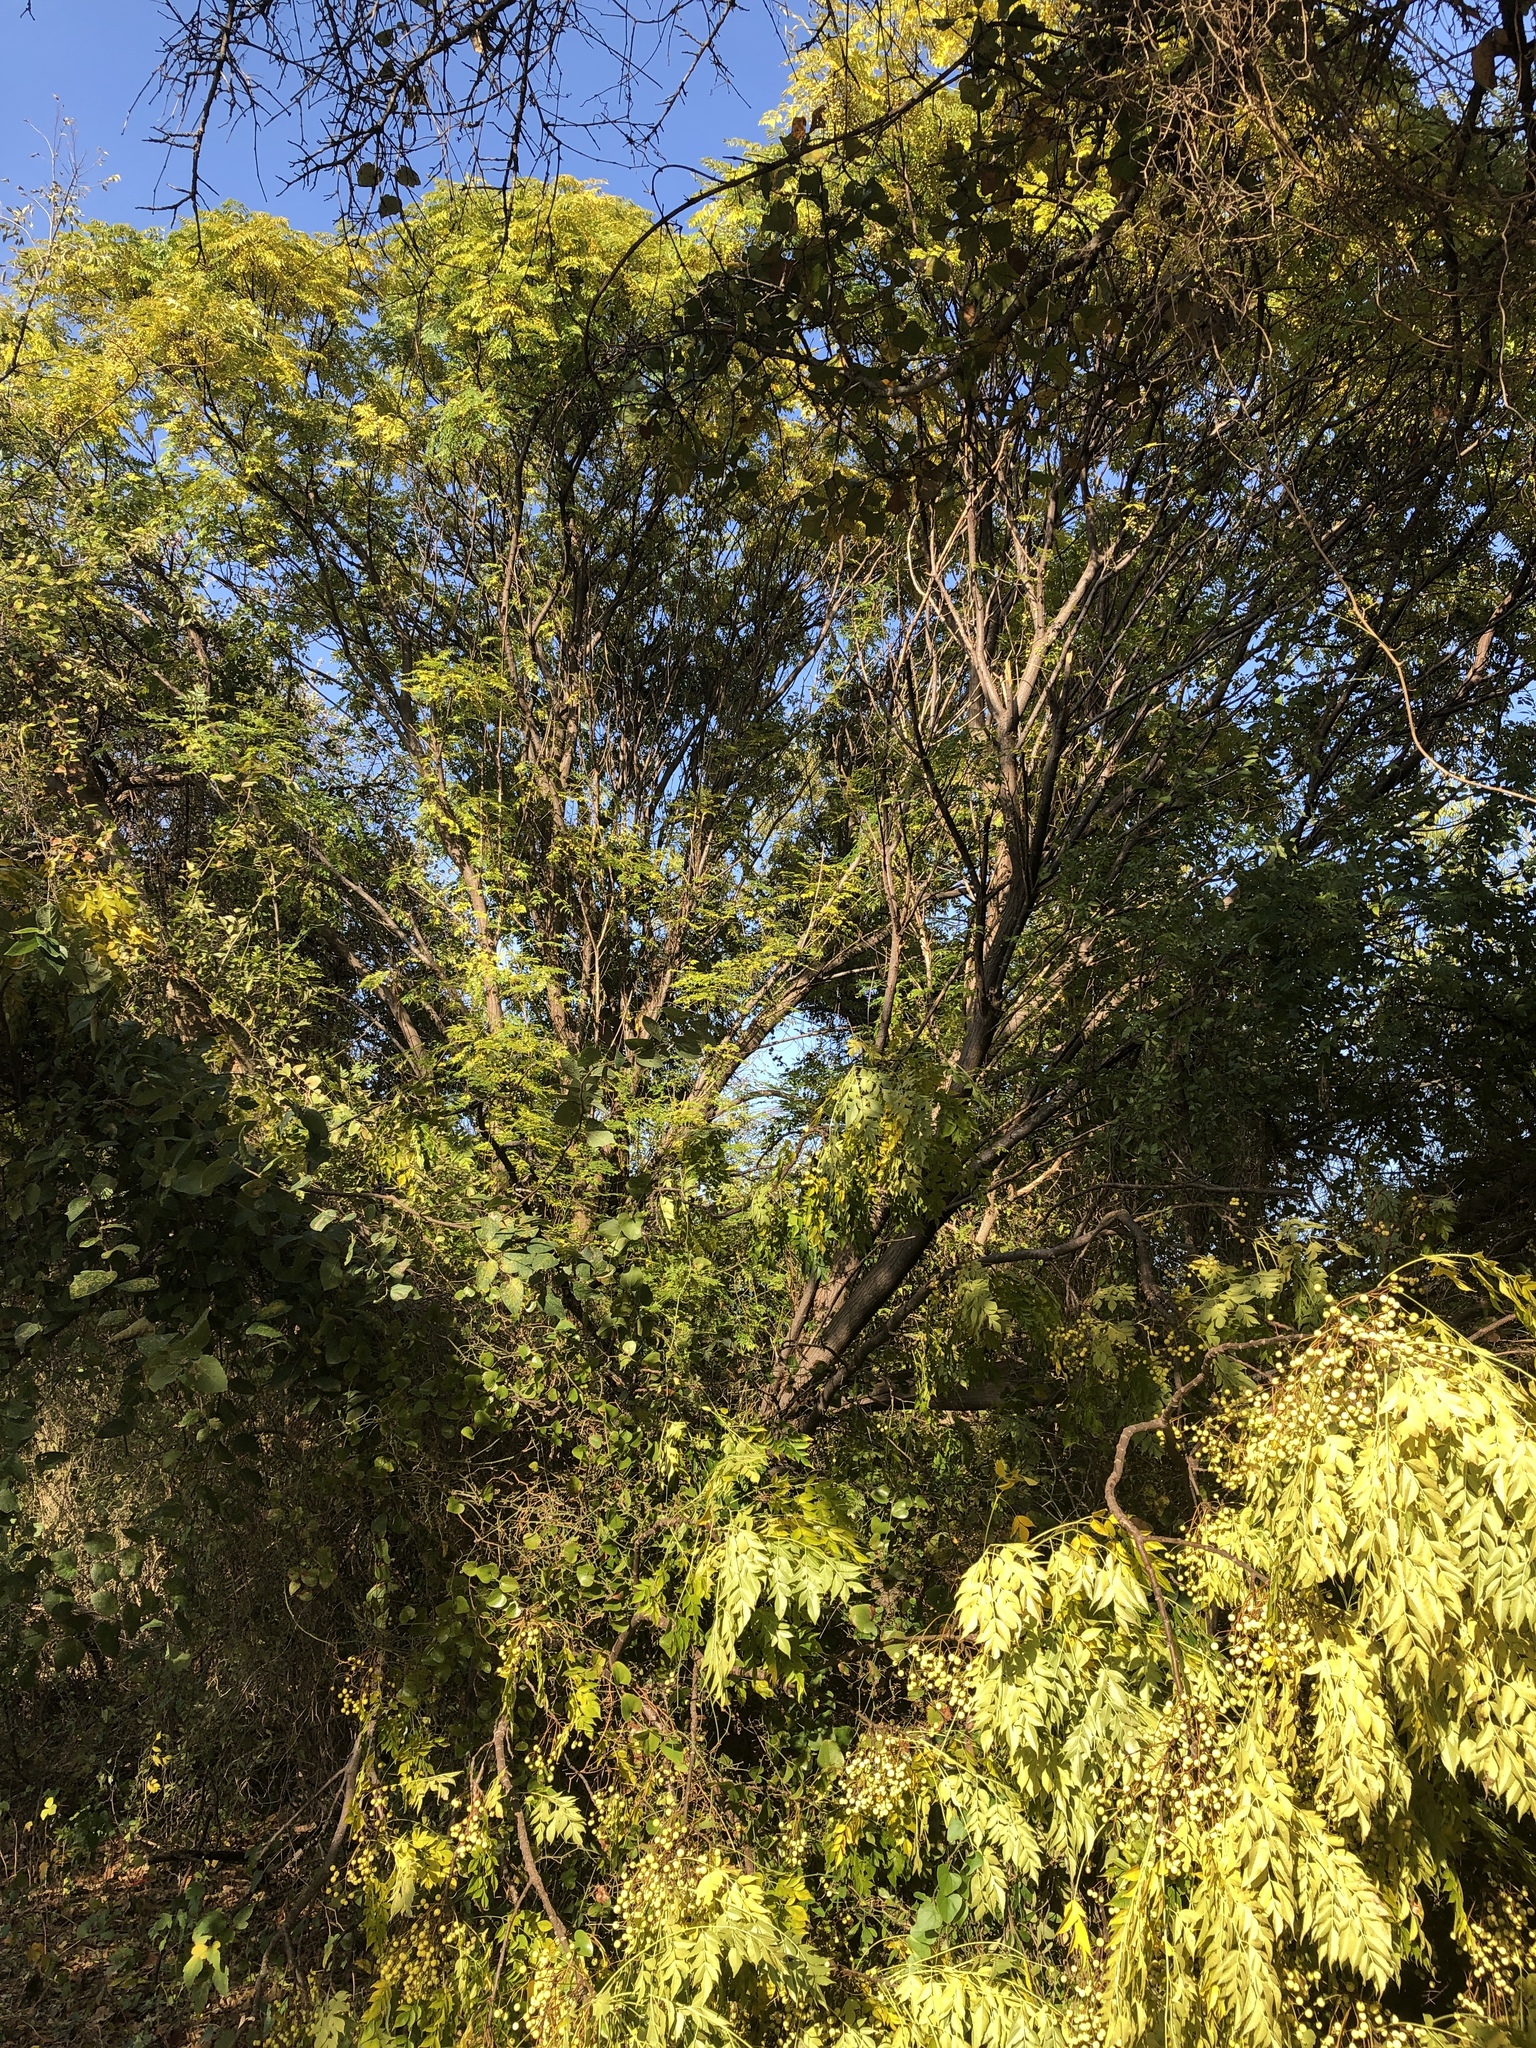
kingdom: Plantae
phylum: Tracheophyta
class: Magnoliopsida
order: Sapindales
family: Meliaceae
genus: Melia
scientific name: Melia azedarach
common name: Chinaberrytree
